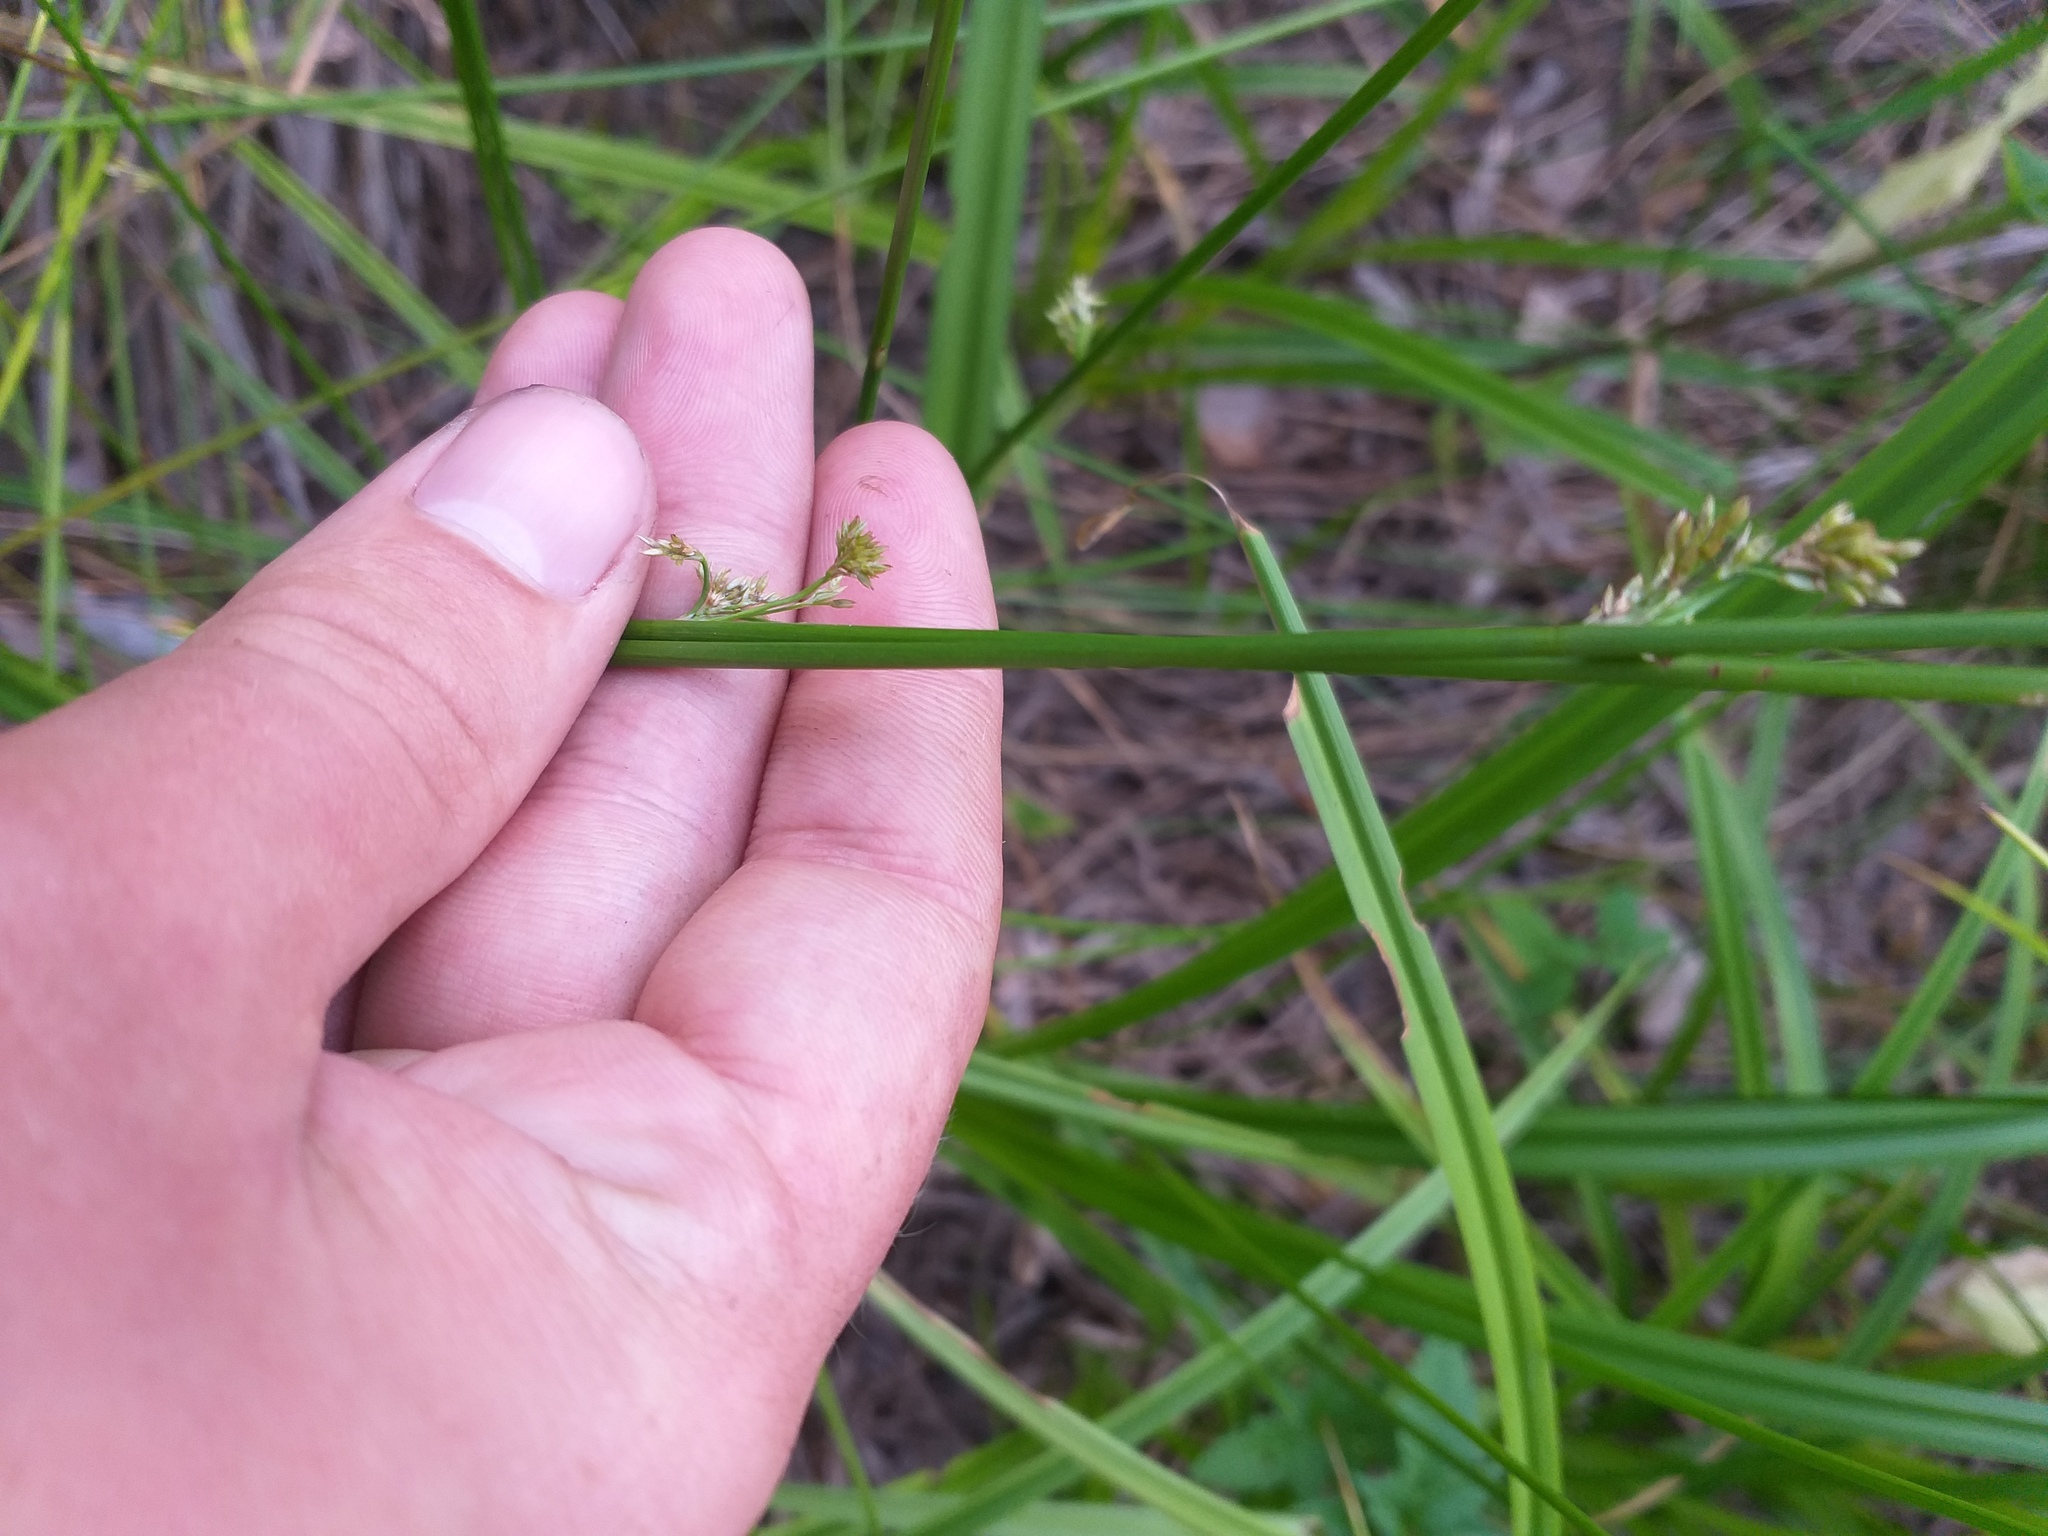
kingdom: Plantae
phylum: Tracheophyta
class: Liliopsida
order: Poales
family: Juncaceae
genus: Juncus
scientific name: Juncus effusus
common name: Soft rush
